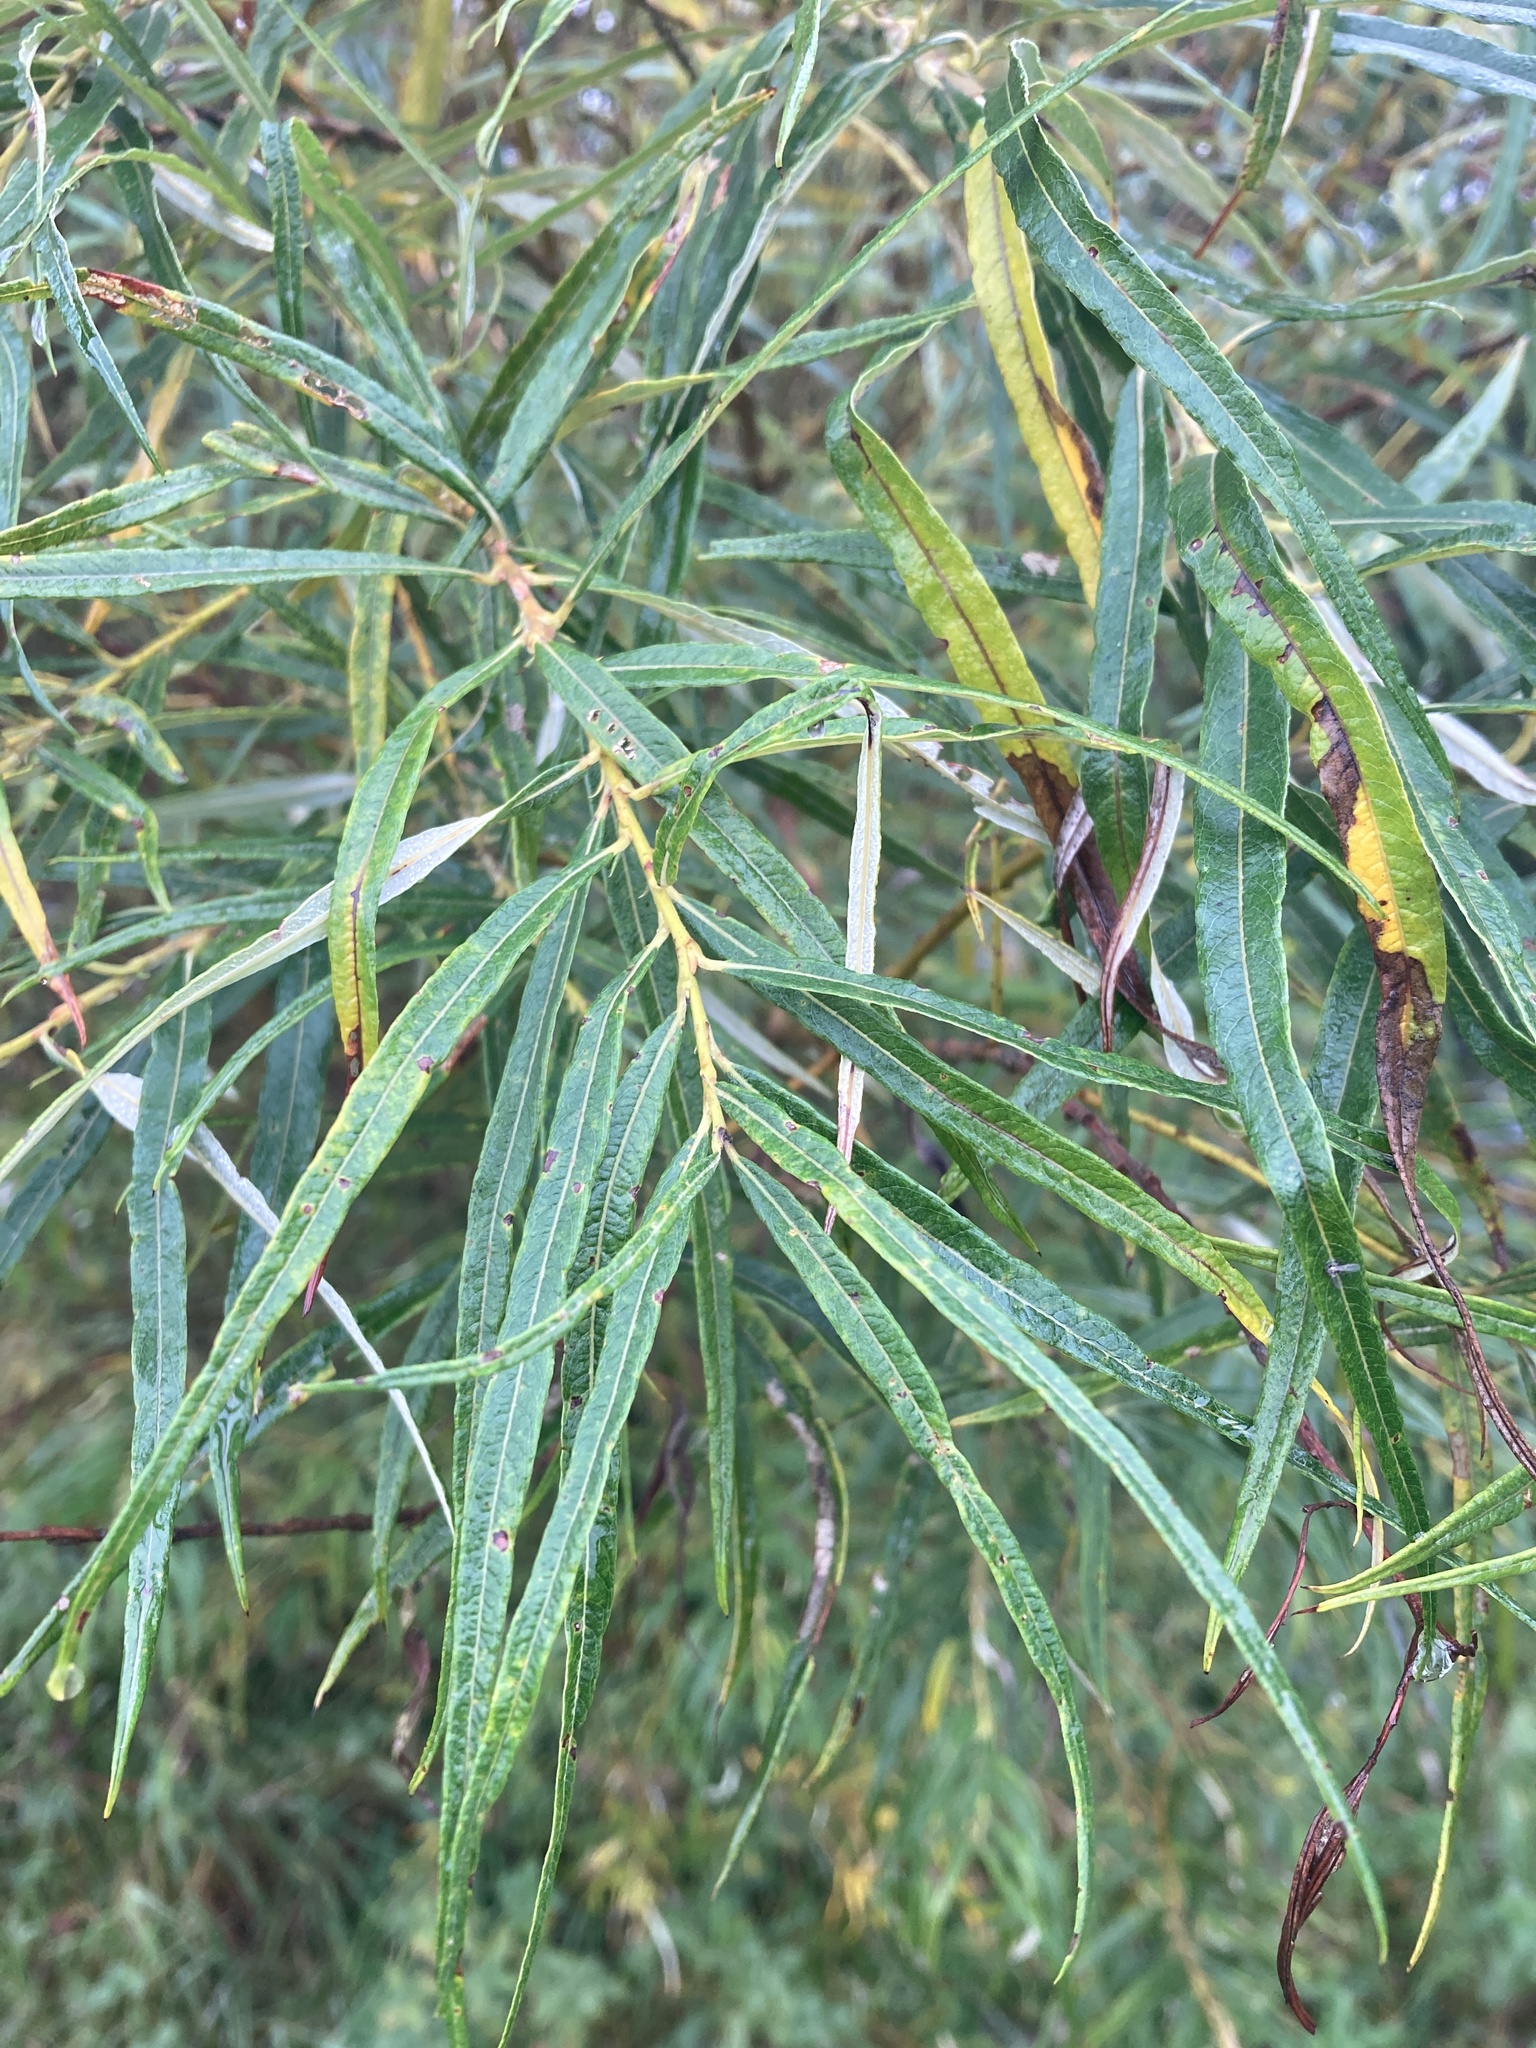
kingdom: Plantae
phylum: Tracheophyta
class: Magnoliopsida
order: Malpighiales
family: Salicaceae
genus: Salix
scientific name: Salix viminalis
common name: Osier
